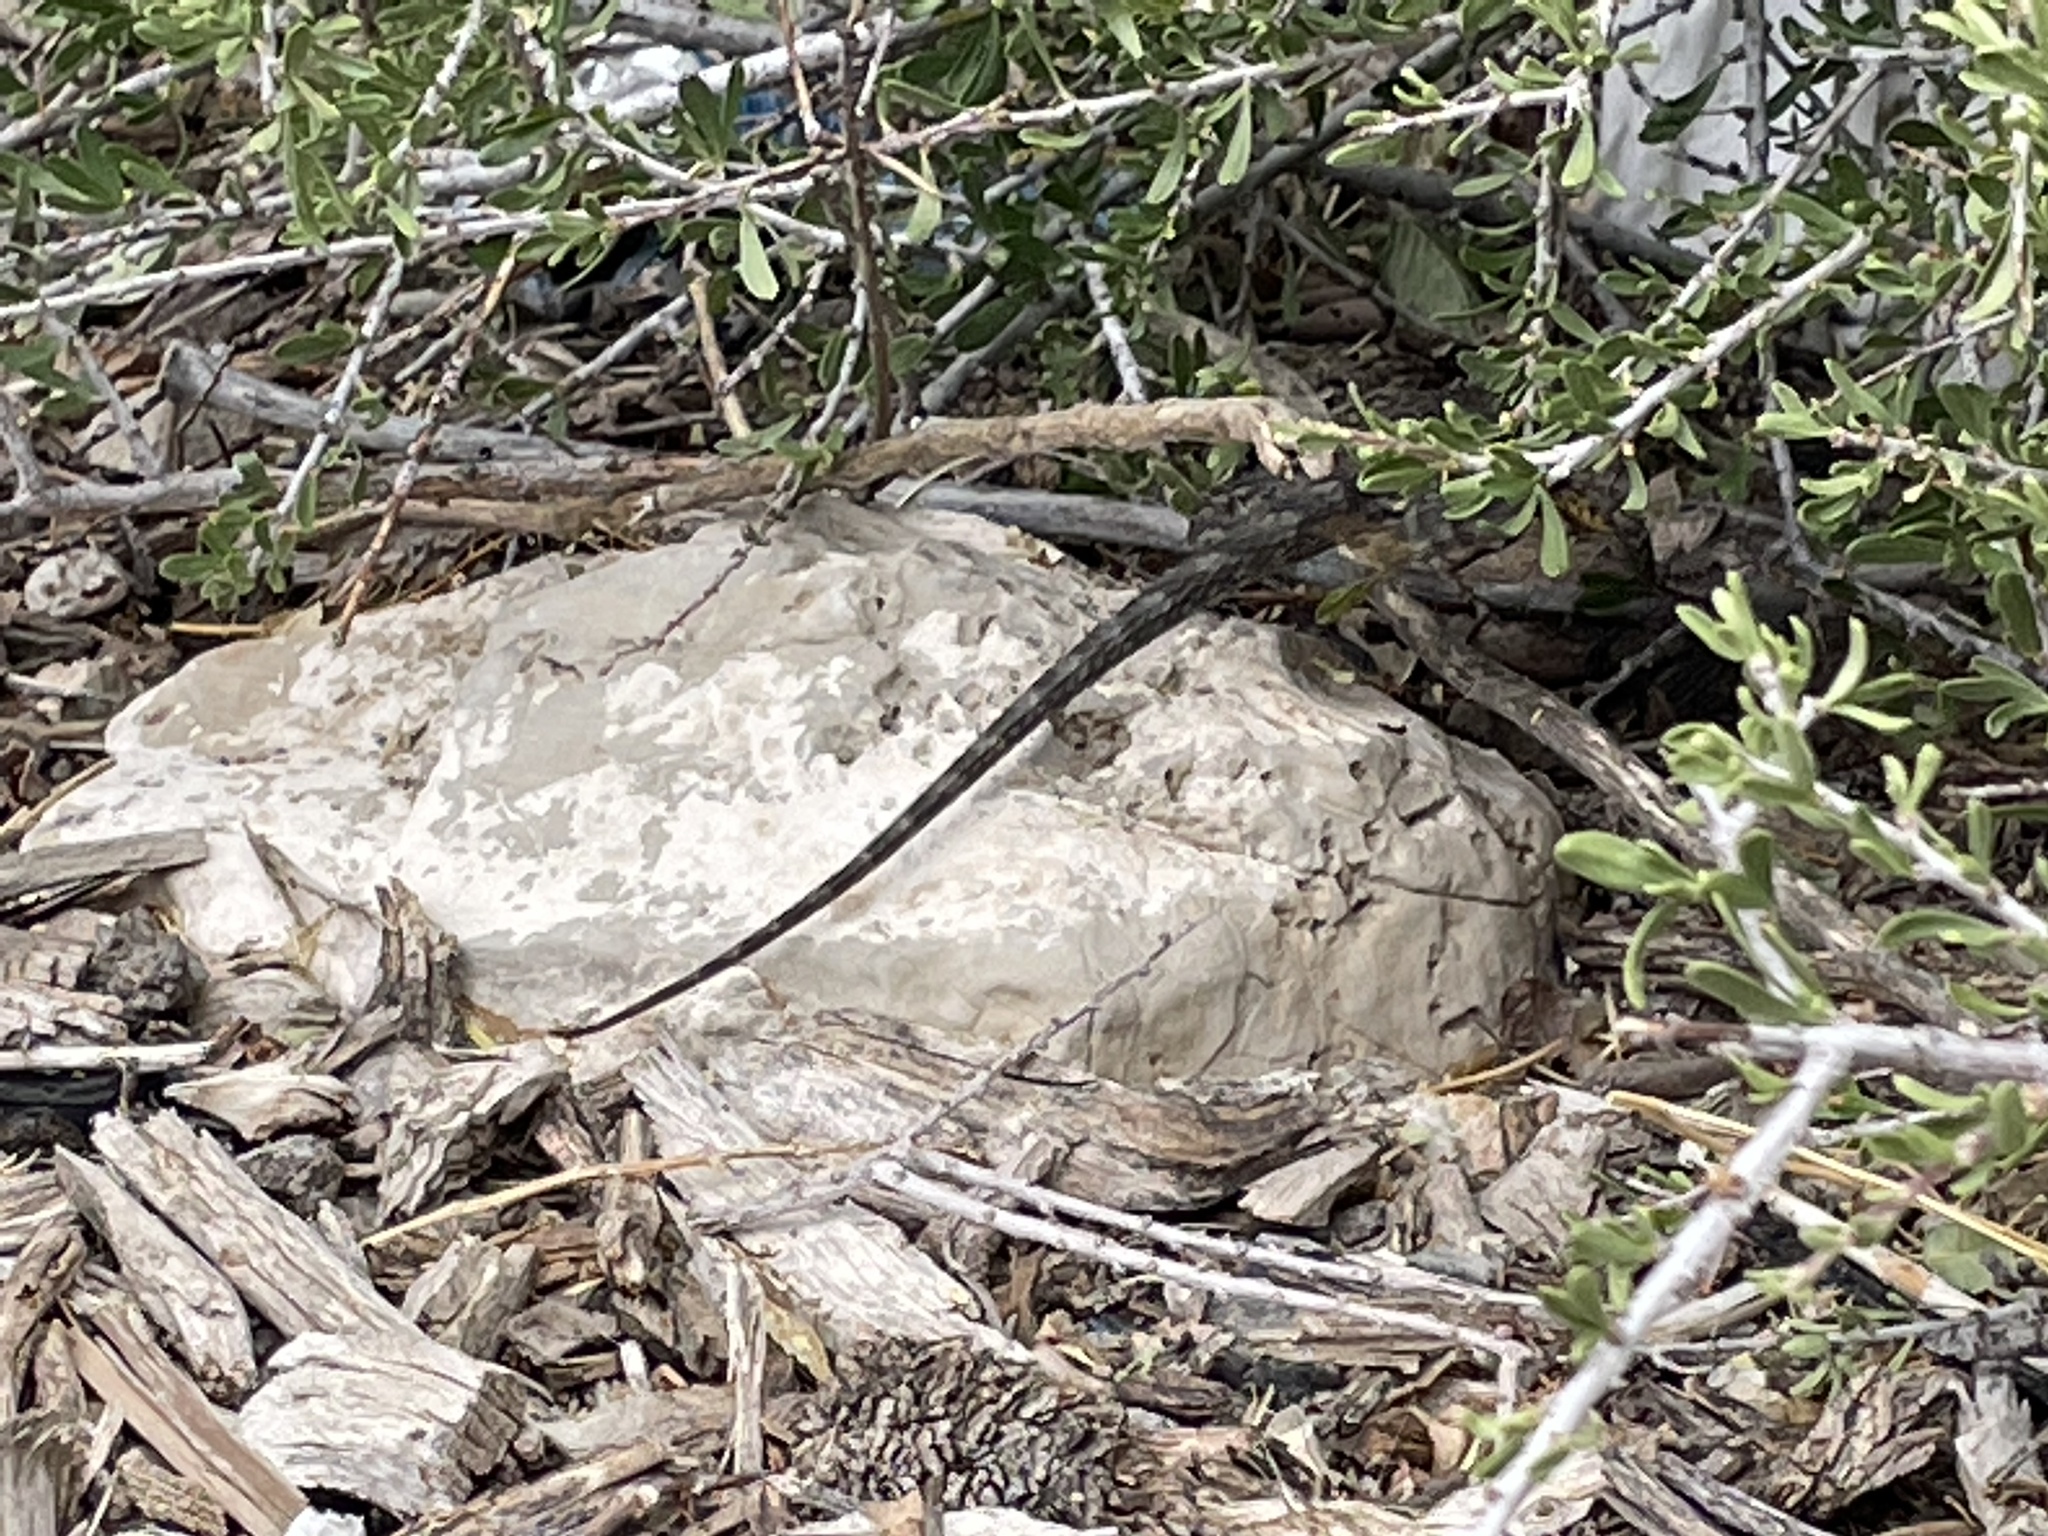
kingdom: Animalia
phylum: Chordata
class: Squamata
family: Phrynosomatidae
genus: Sceloporus
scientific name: Sceloporus occidentalis
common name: Western fence lizard
